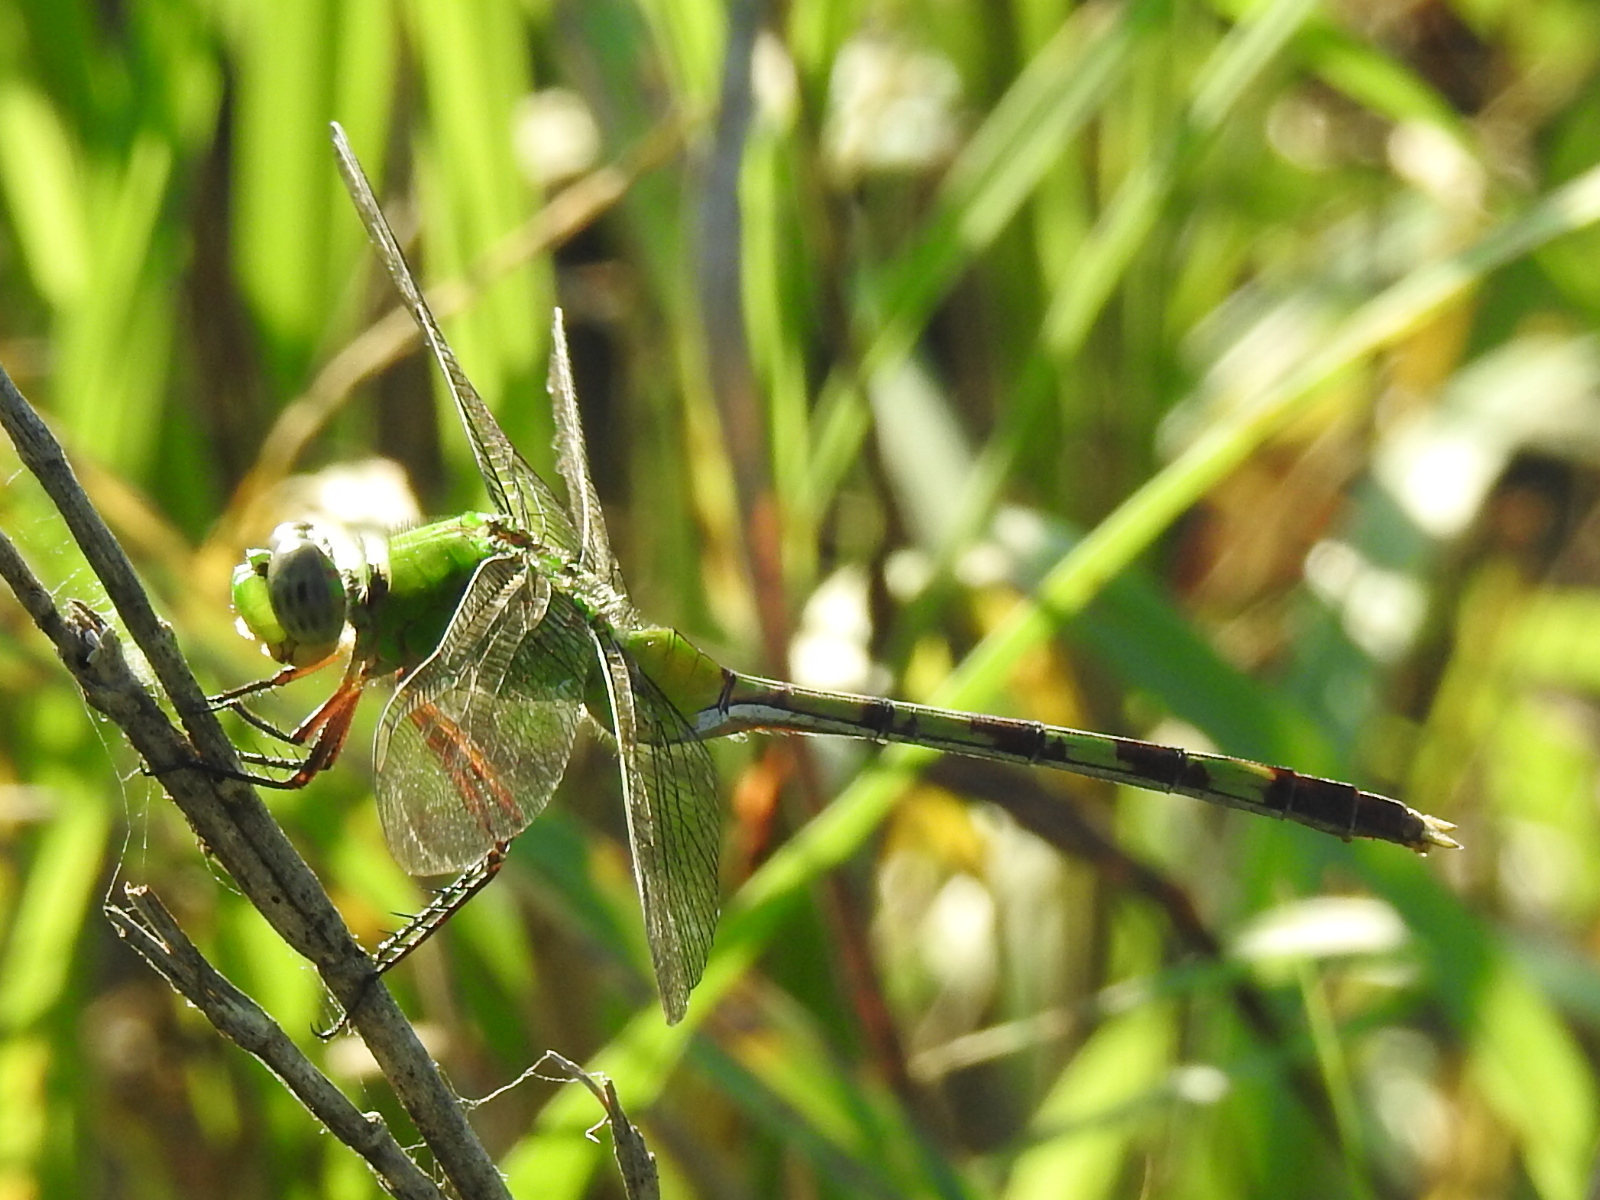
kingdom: Animalia
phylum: Arthropoda
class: Insecta
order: Odonata
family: Libellulidae
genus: Erythemis
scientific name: Erythemis vesiculosa
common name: Great pondhawk
